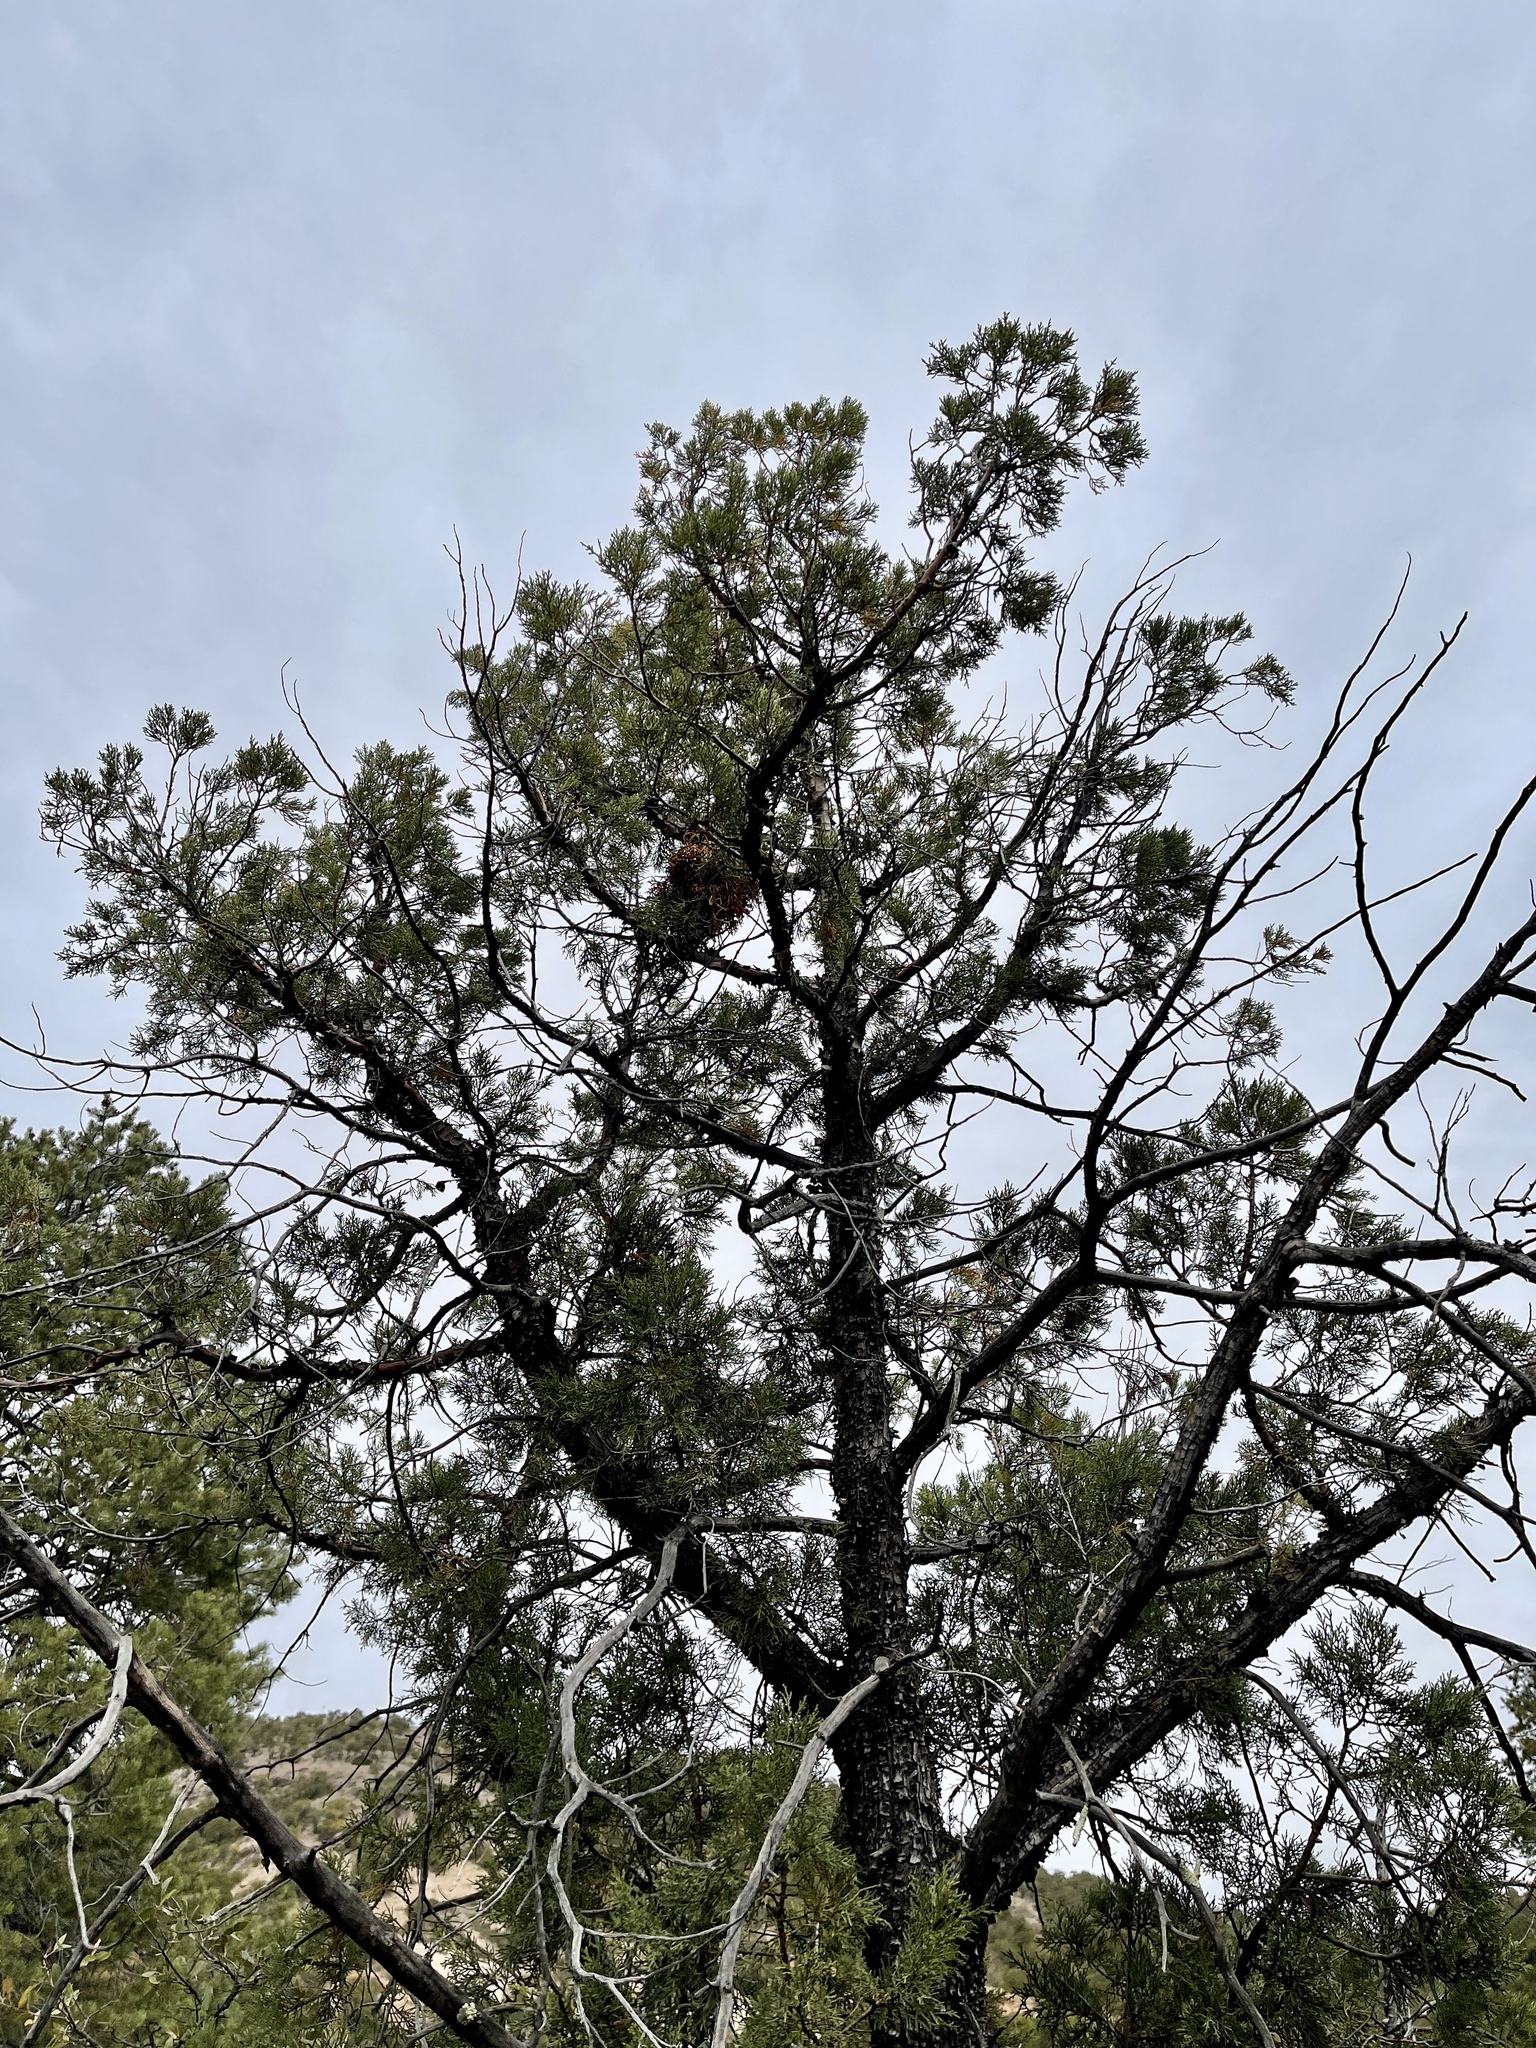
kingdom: Plantae
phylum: Tracheophyta
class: Pinopsida
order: Pinales
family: Cupressaceae
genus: Juniperus
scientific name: Juniperus deppeana
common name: Alligator juniper
